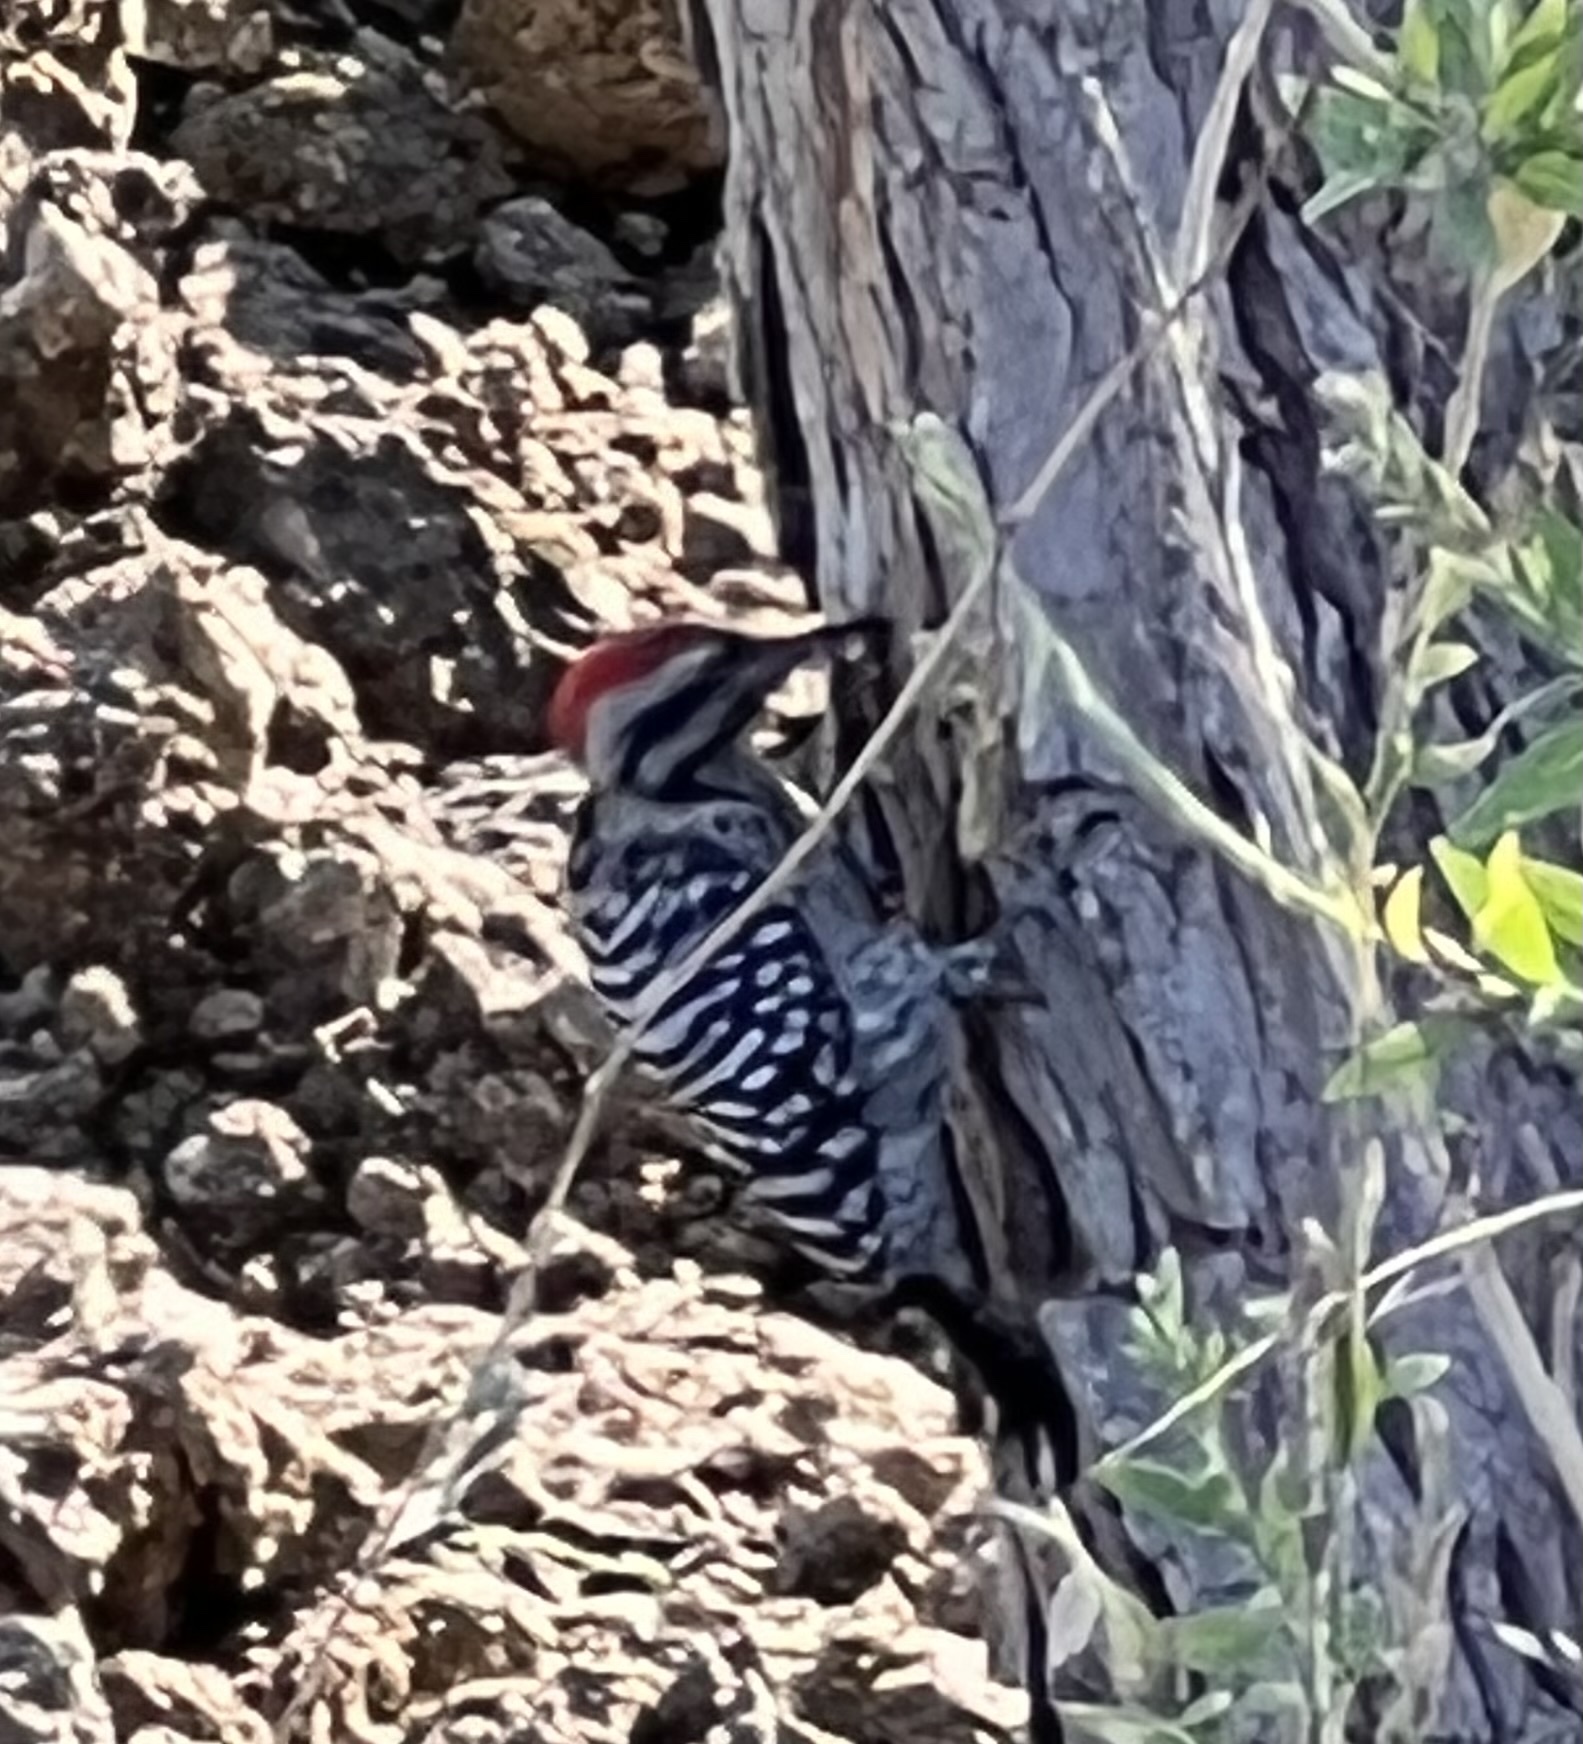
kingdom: Animalia
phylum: Chordata
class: Aves
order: Piciformes
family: Picidae
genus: Dryobates
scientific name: Dryobates scalaris
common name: Ladder-backed woodpecker
